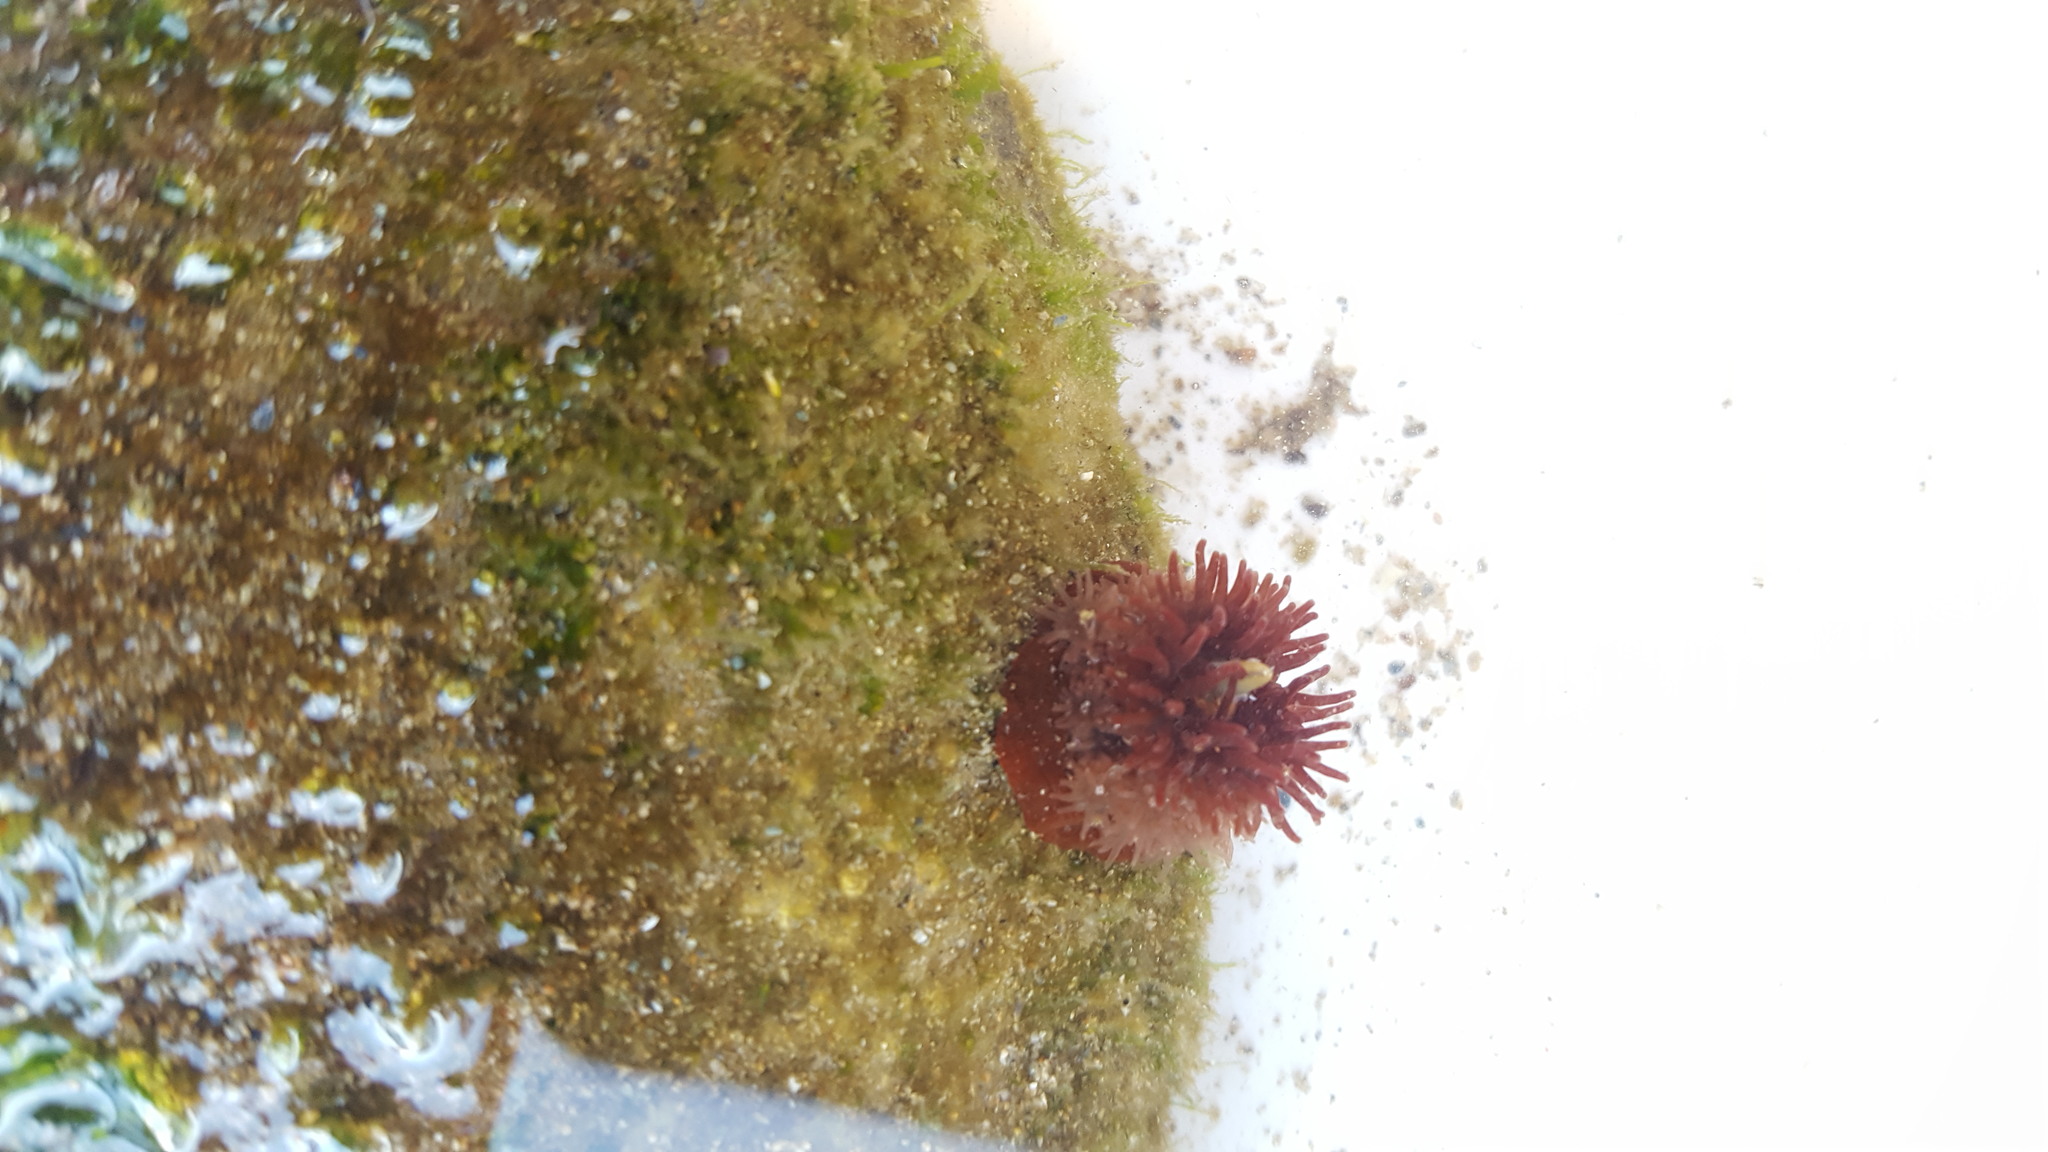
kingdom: Animalia
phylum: Cnidaria
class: Anthozoa
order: Actiniaria
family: Actiniidae
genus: Epiactis
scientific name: Epiactis prolifera
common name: Brooding anemone
